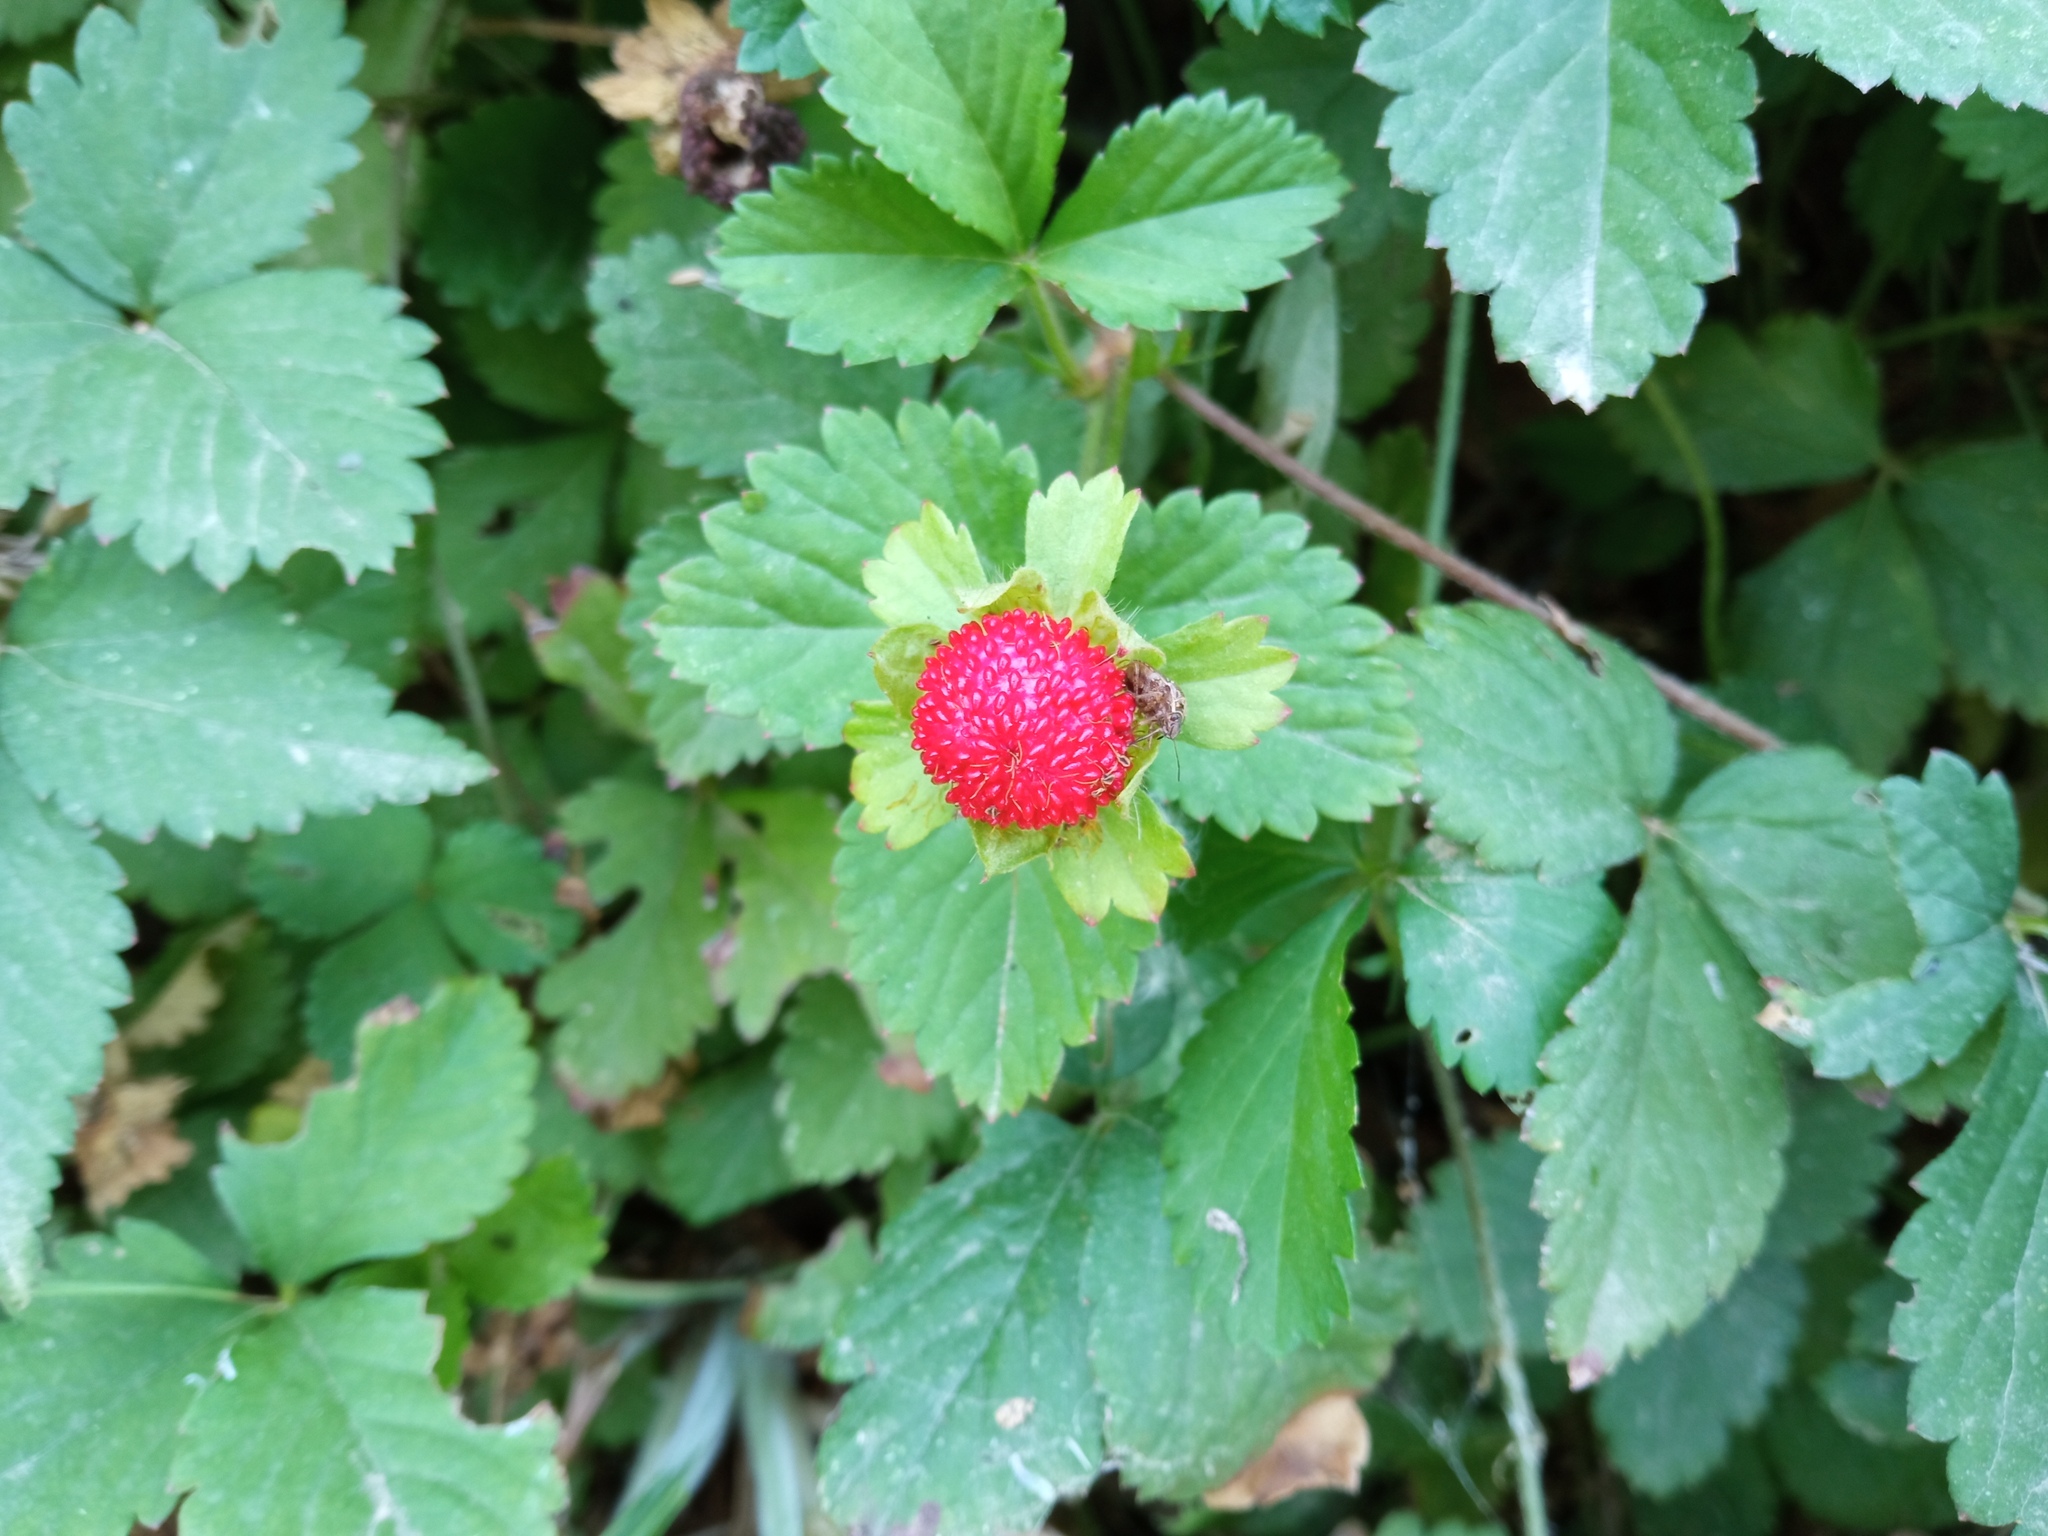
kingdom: Plantae
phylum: Tracheophyta
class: Magnoliopsida
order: Rosales
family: Rosaceae
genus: Potentilla
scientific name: Potentilla indica
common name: Yellow-flowered strawberry
